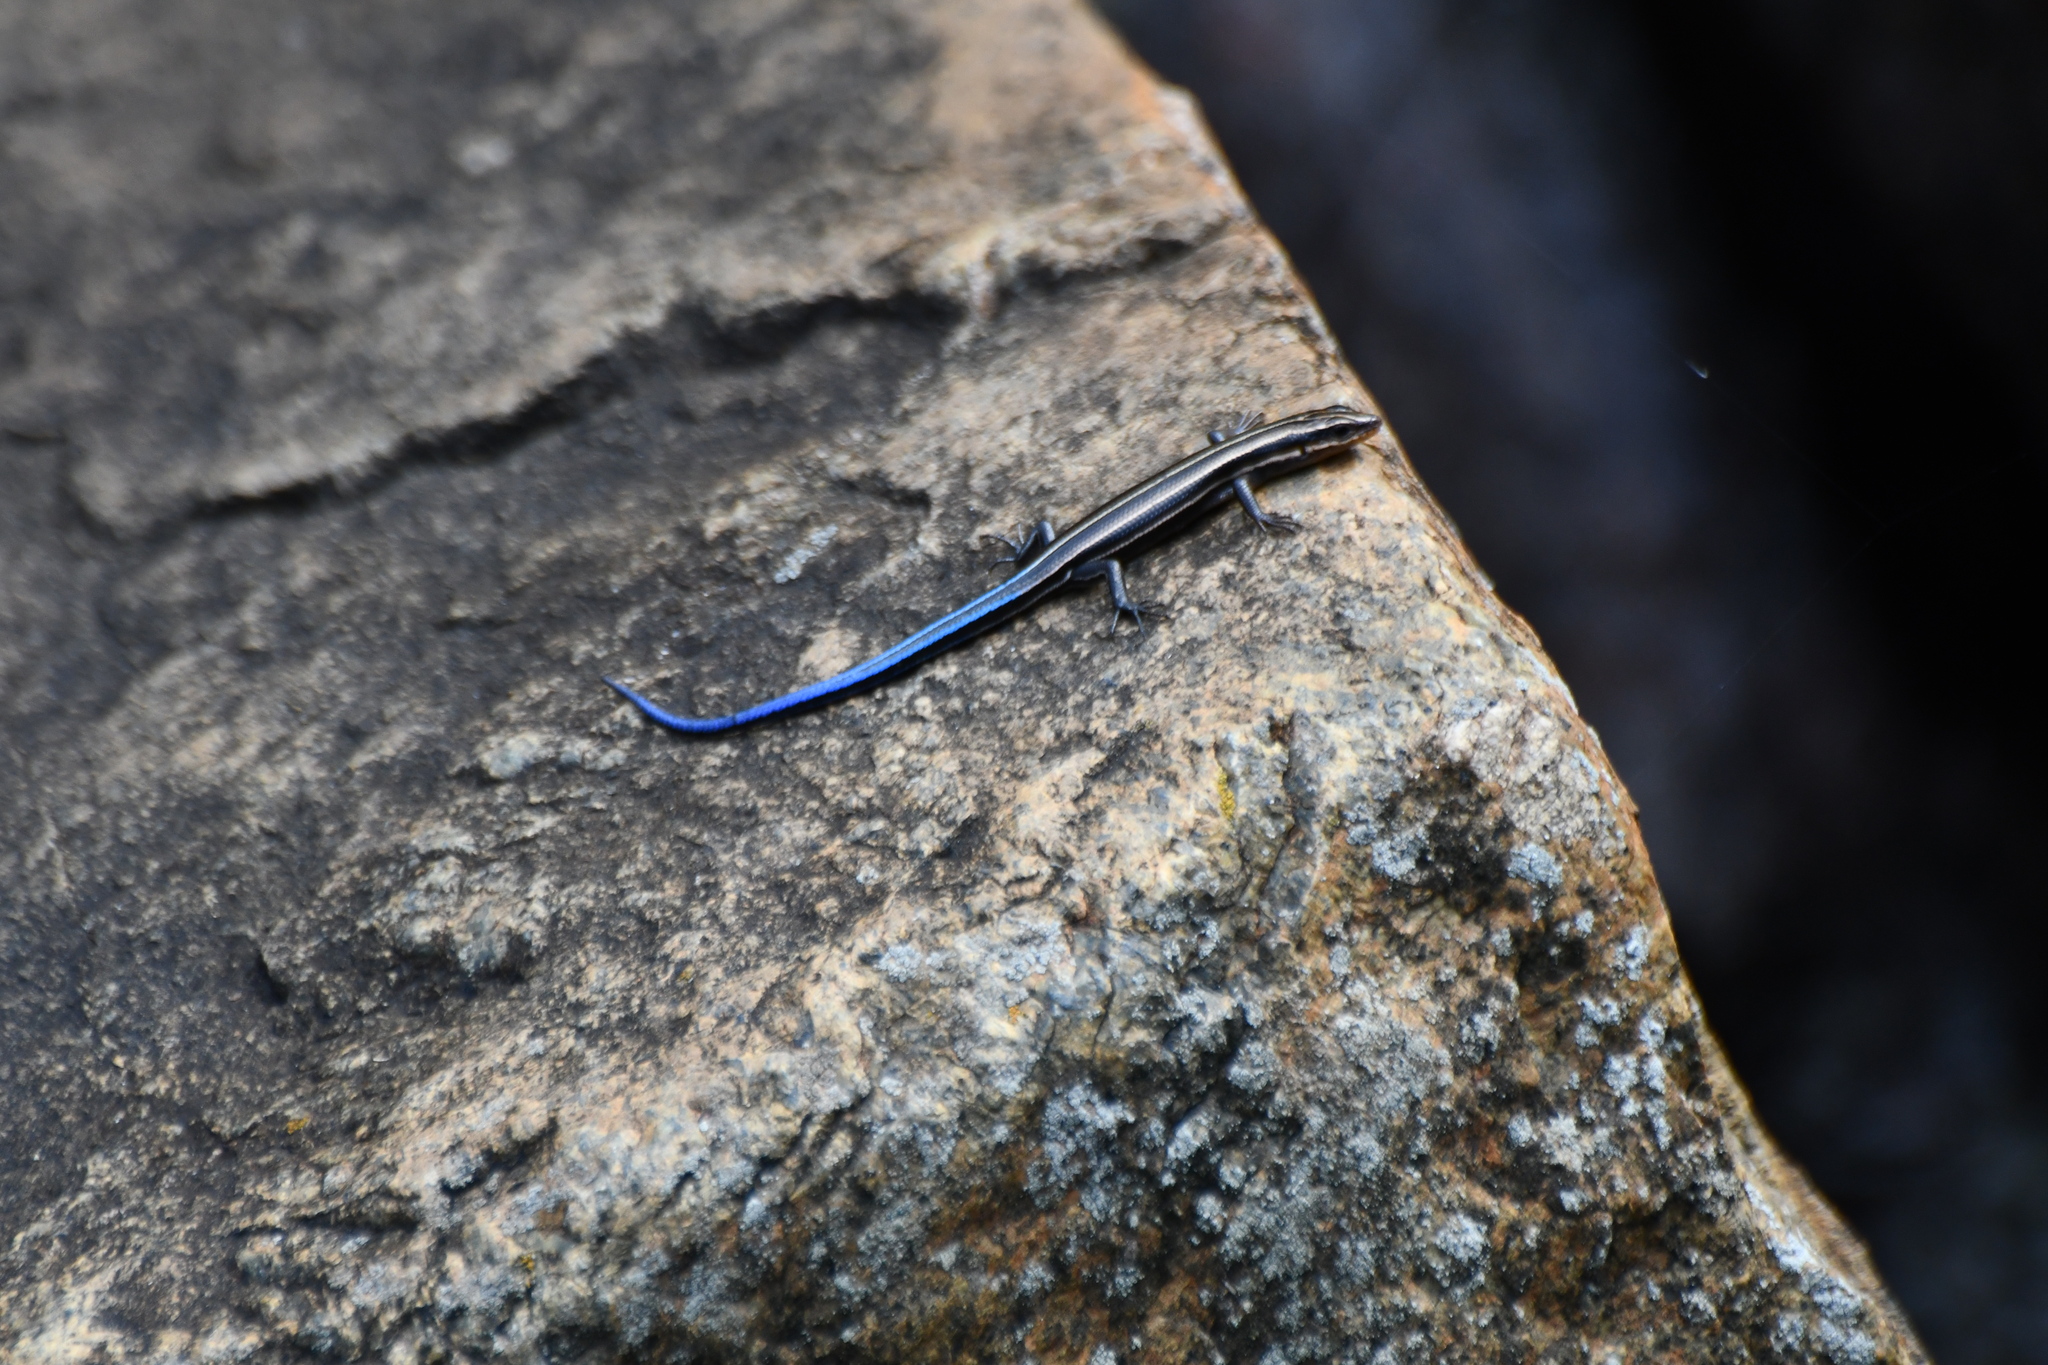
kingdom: Animalia
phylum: Chordata
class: Squamata
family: Scincidae
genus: Plestiodon
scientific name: Plestiodon fasciatus
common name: Five-lined skink
